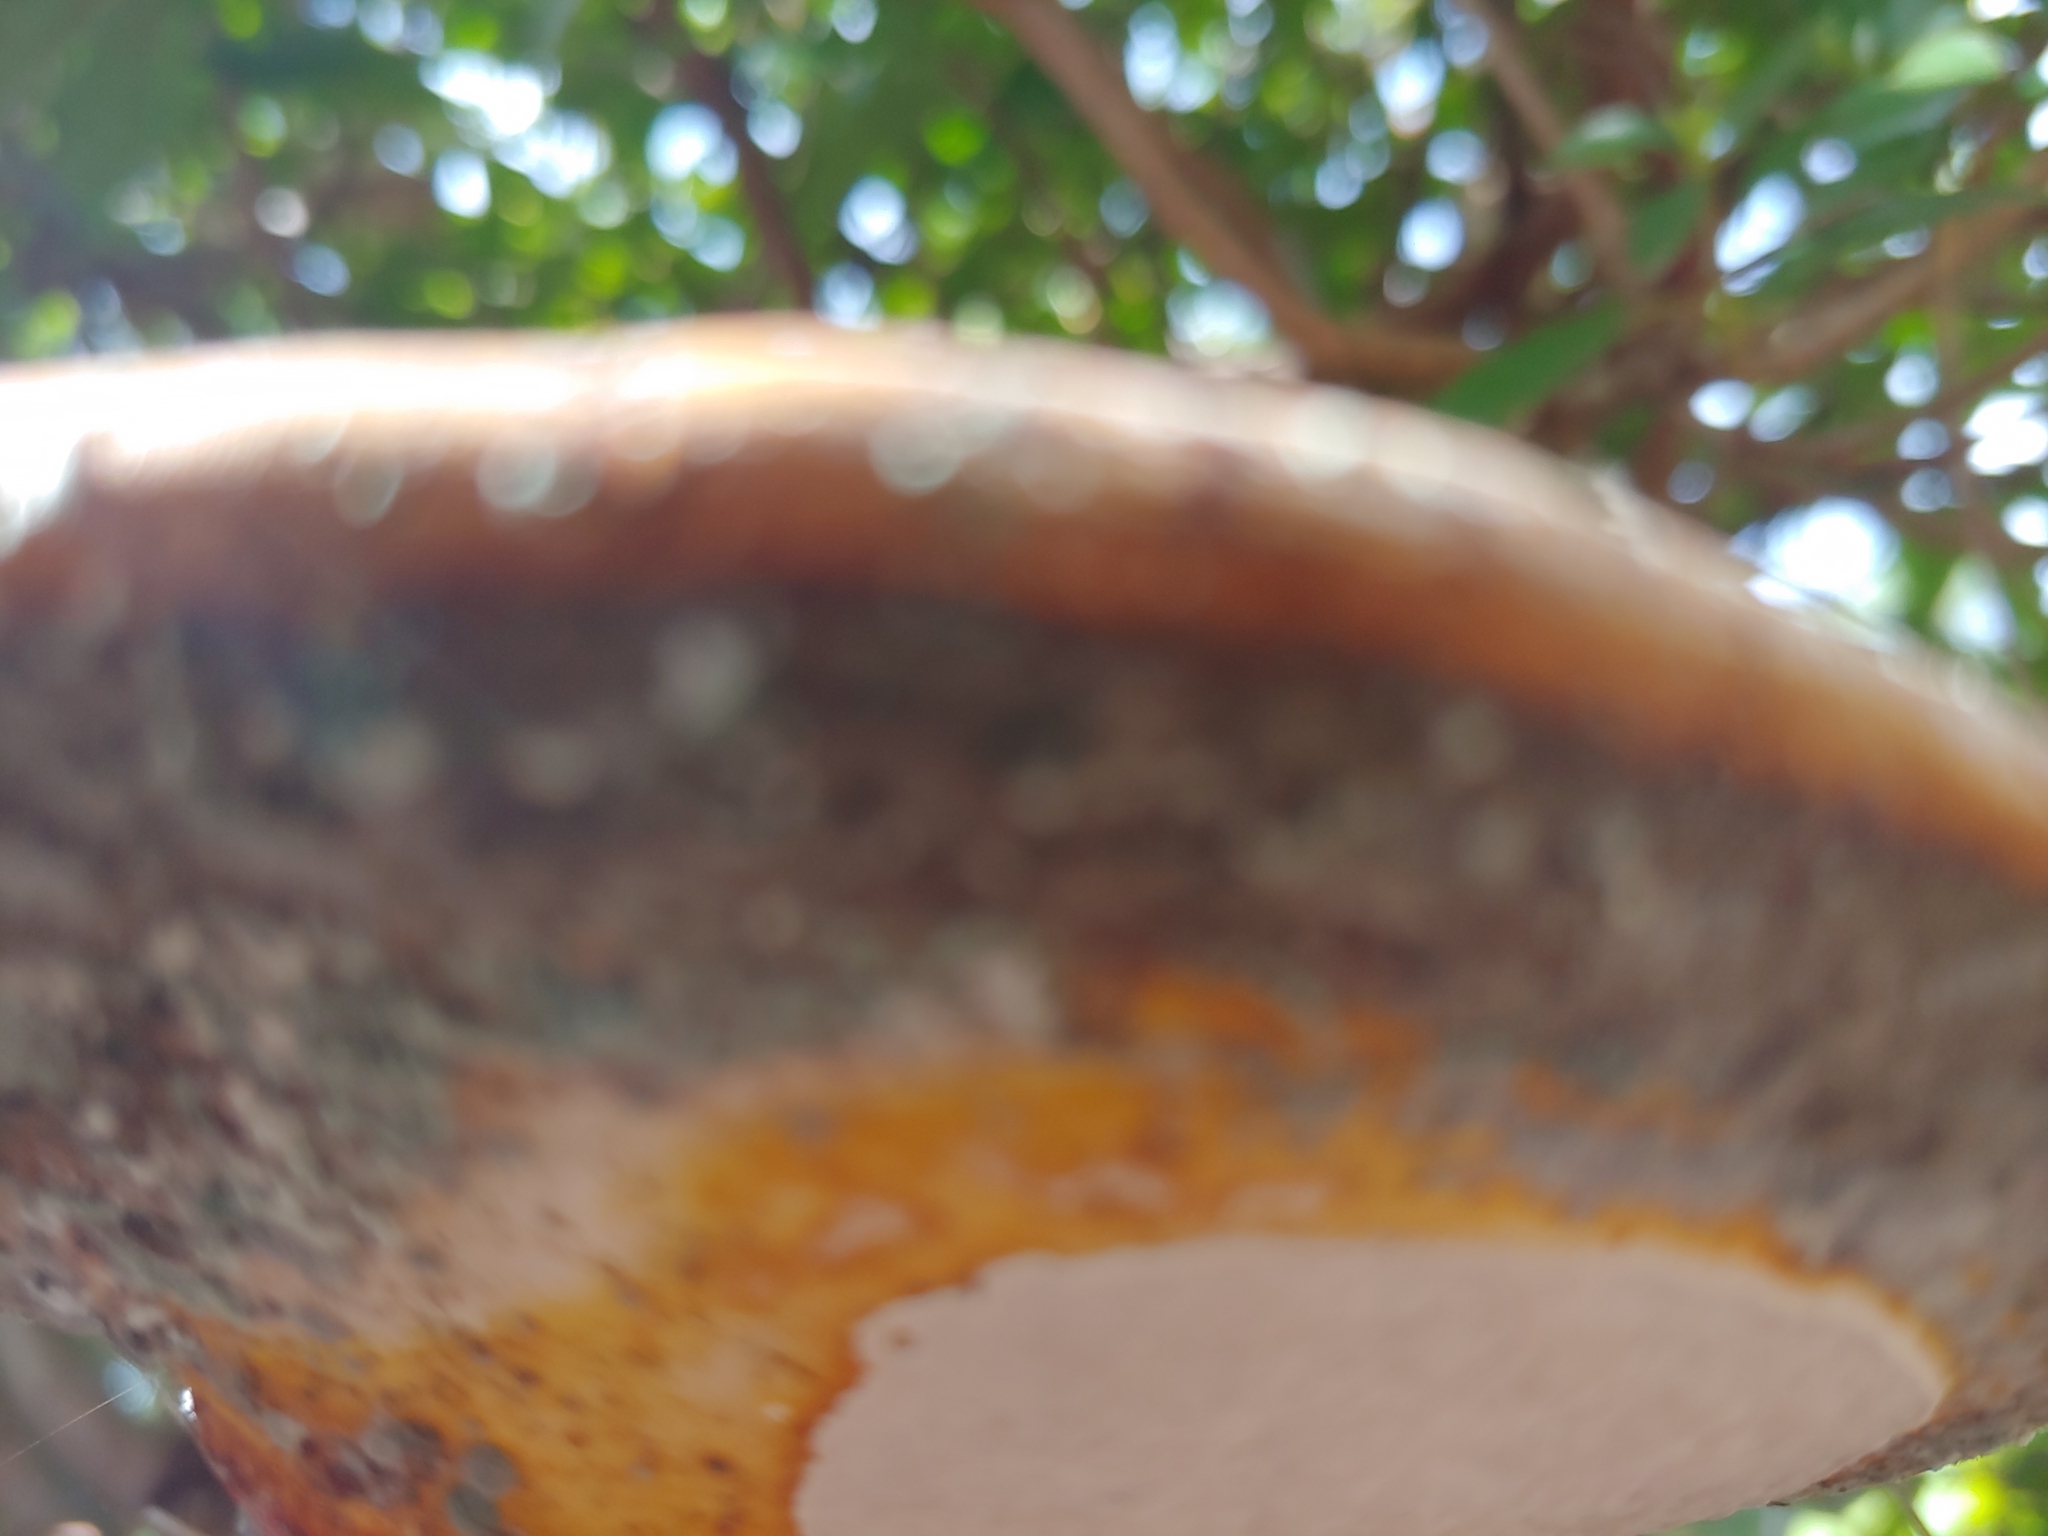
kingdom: Fungi
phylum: Basidiomycota
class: Agaricomycetes
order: Polyporales
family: Polyporaceae
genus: Ganoderma
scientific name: Ganoderma curtisii
